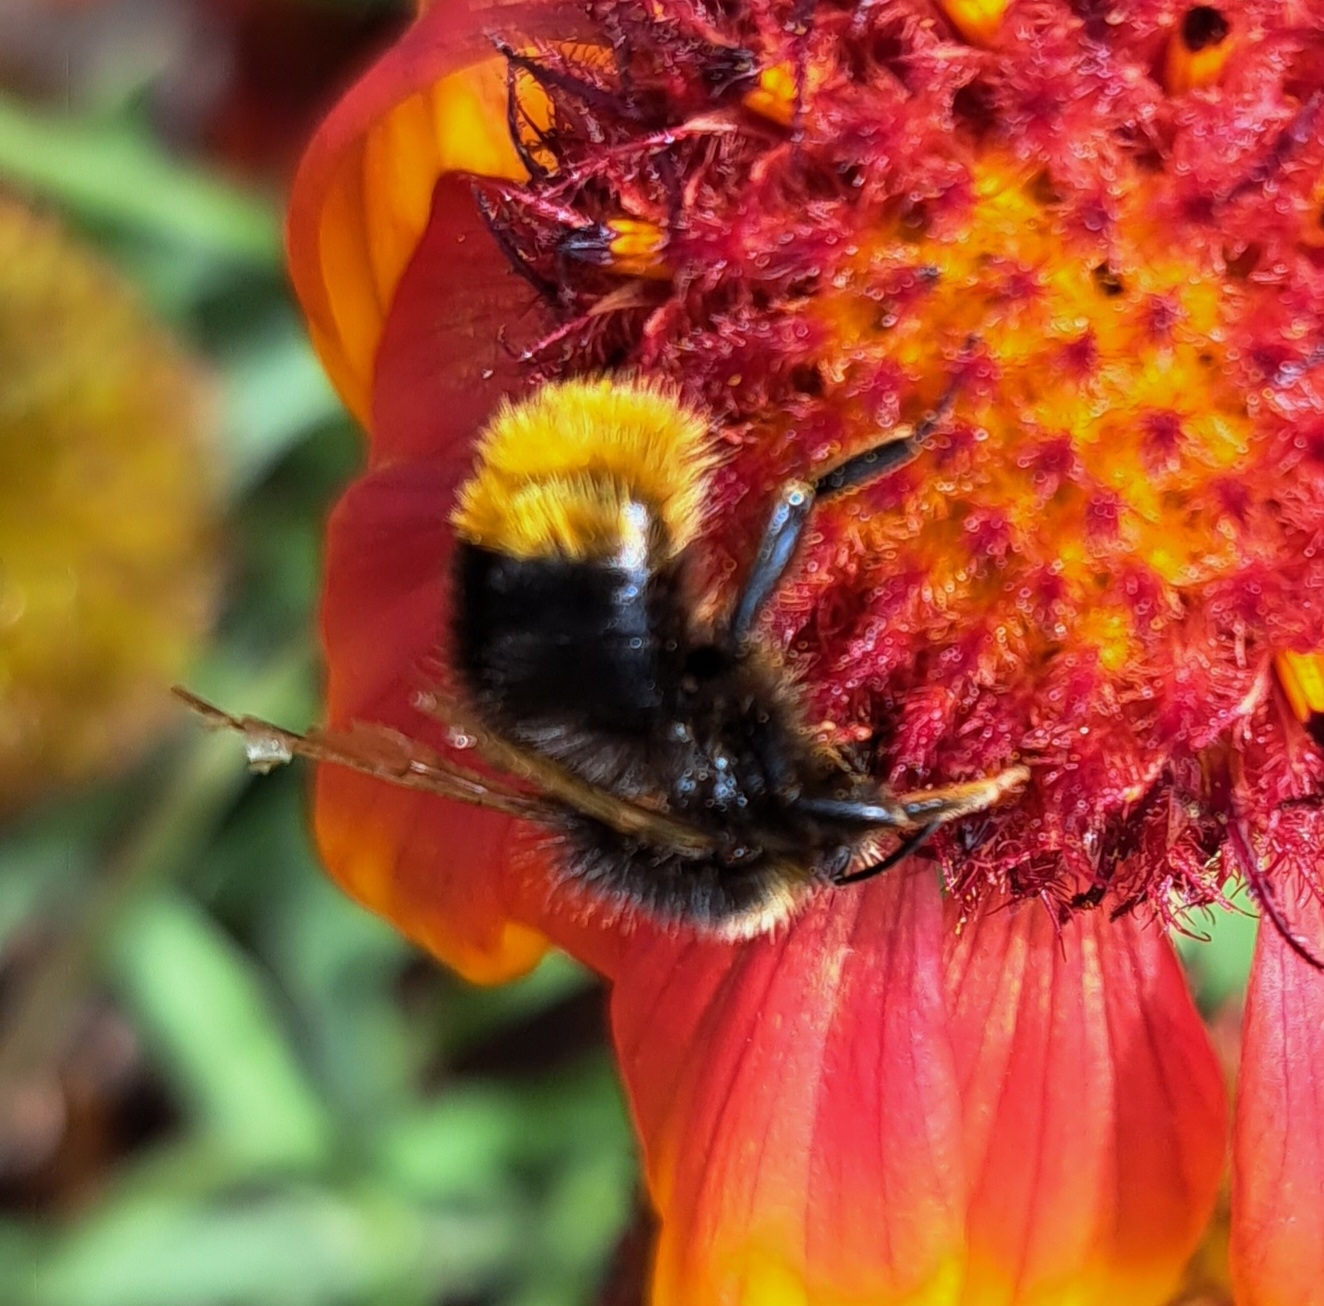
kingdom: Animalia
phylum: Arthropoda
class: Insecta
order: Hymenoptera
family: Apidae
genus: Bombus
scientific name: Bombus lapidarius
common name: Large red-tailed humble-bee
